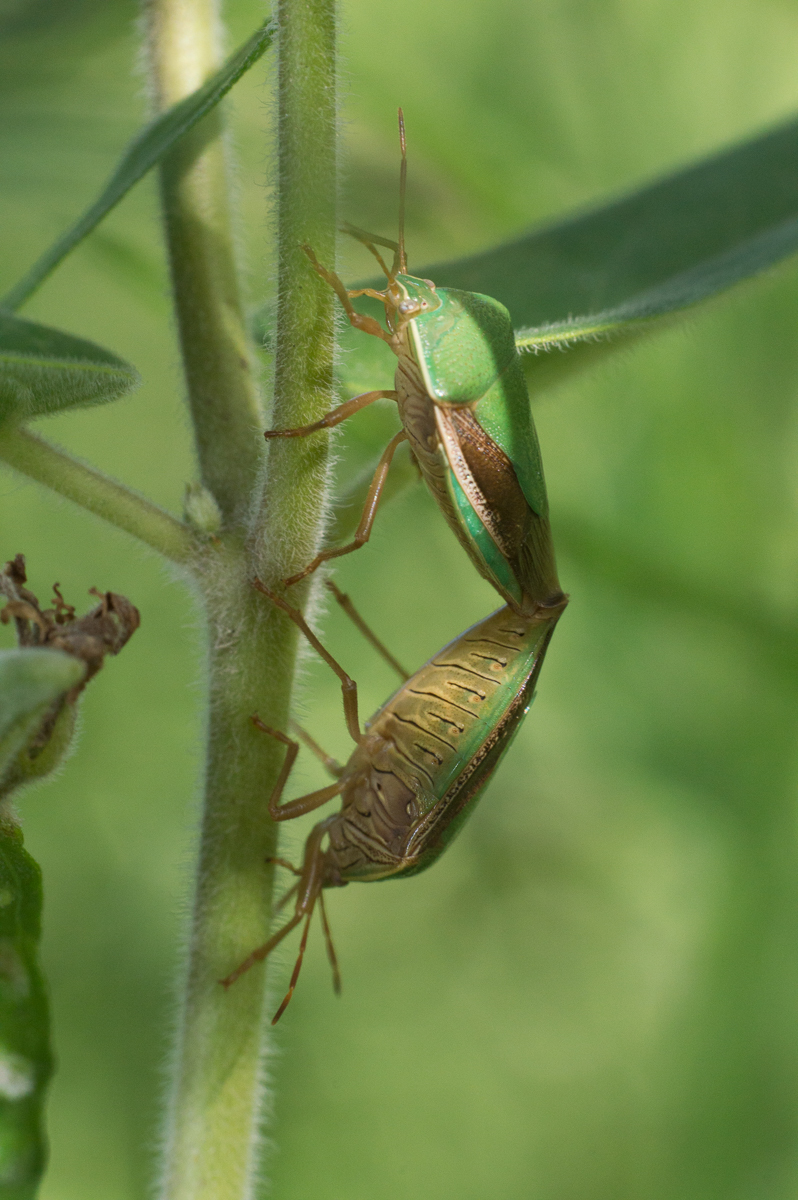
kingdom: Animalia
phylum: Arthropoda
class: Insecta
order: Hemiptera
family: Pentatomidae
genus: Edessa
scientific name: Edessa meditabunda
